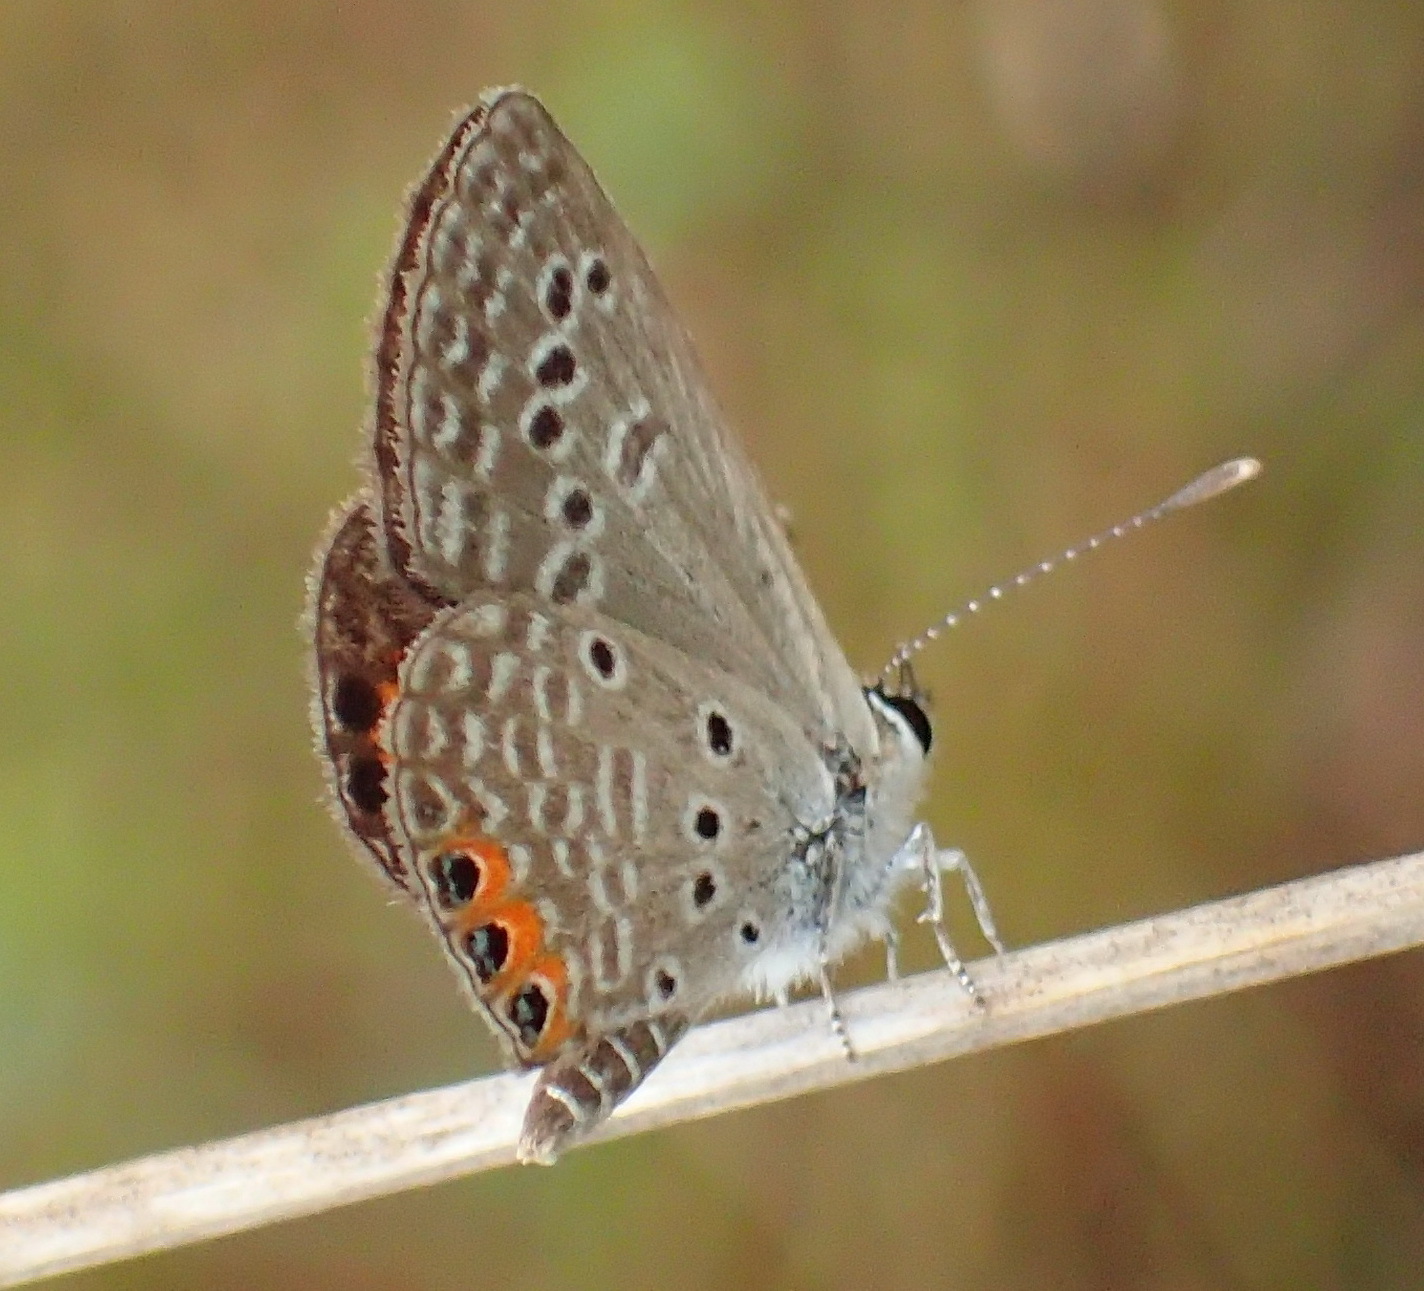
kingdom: Animalia
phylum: Arthropoda
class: Insecta
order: Lepidoptera
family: Lycaenidae
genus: Freyeria
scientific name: Freyeria trochylus
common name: Grass jewel
